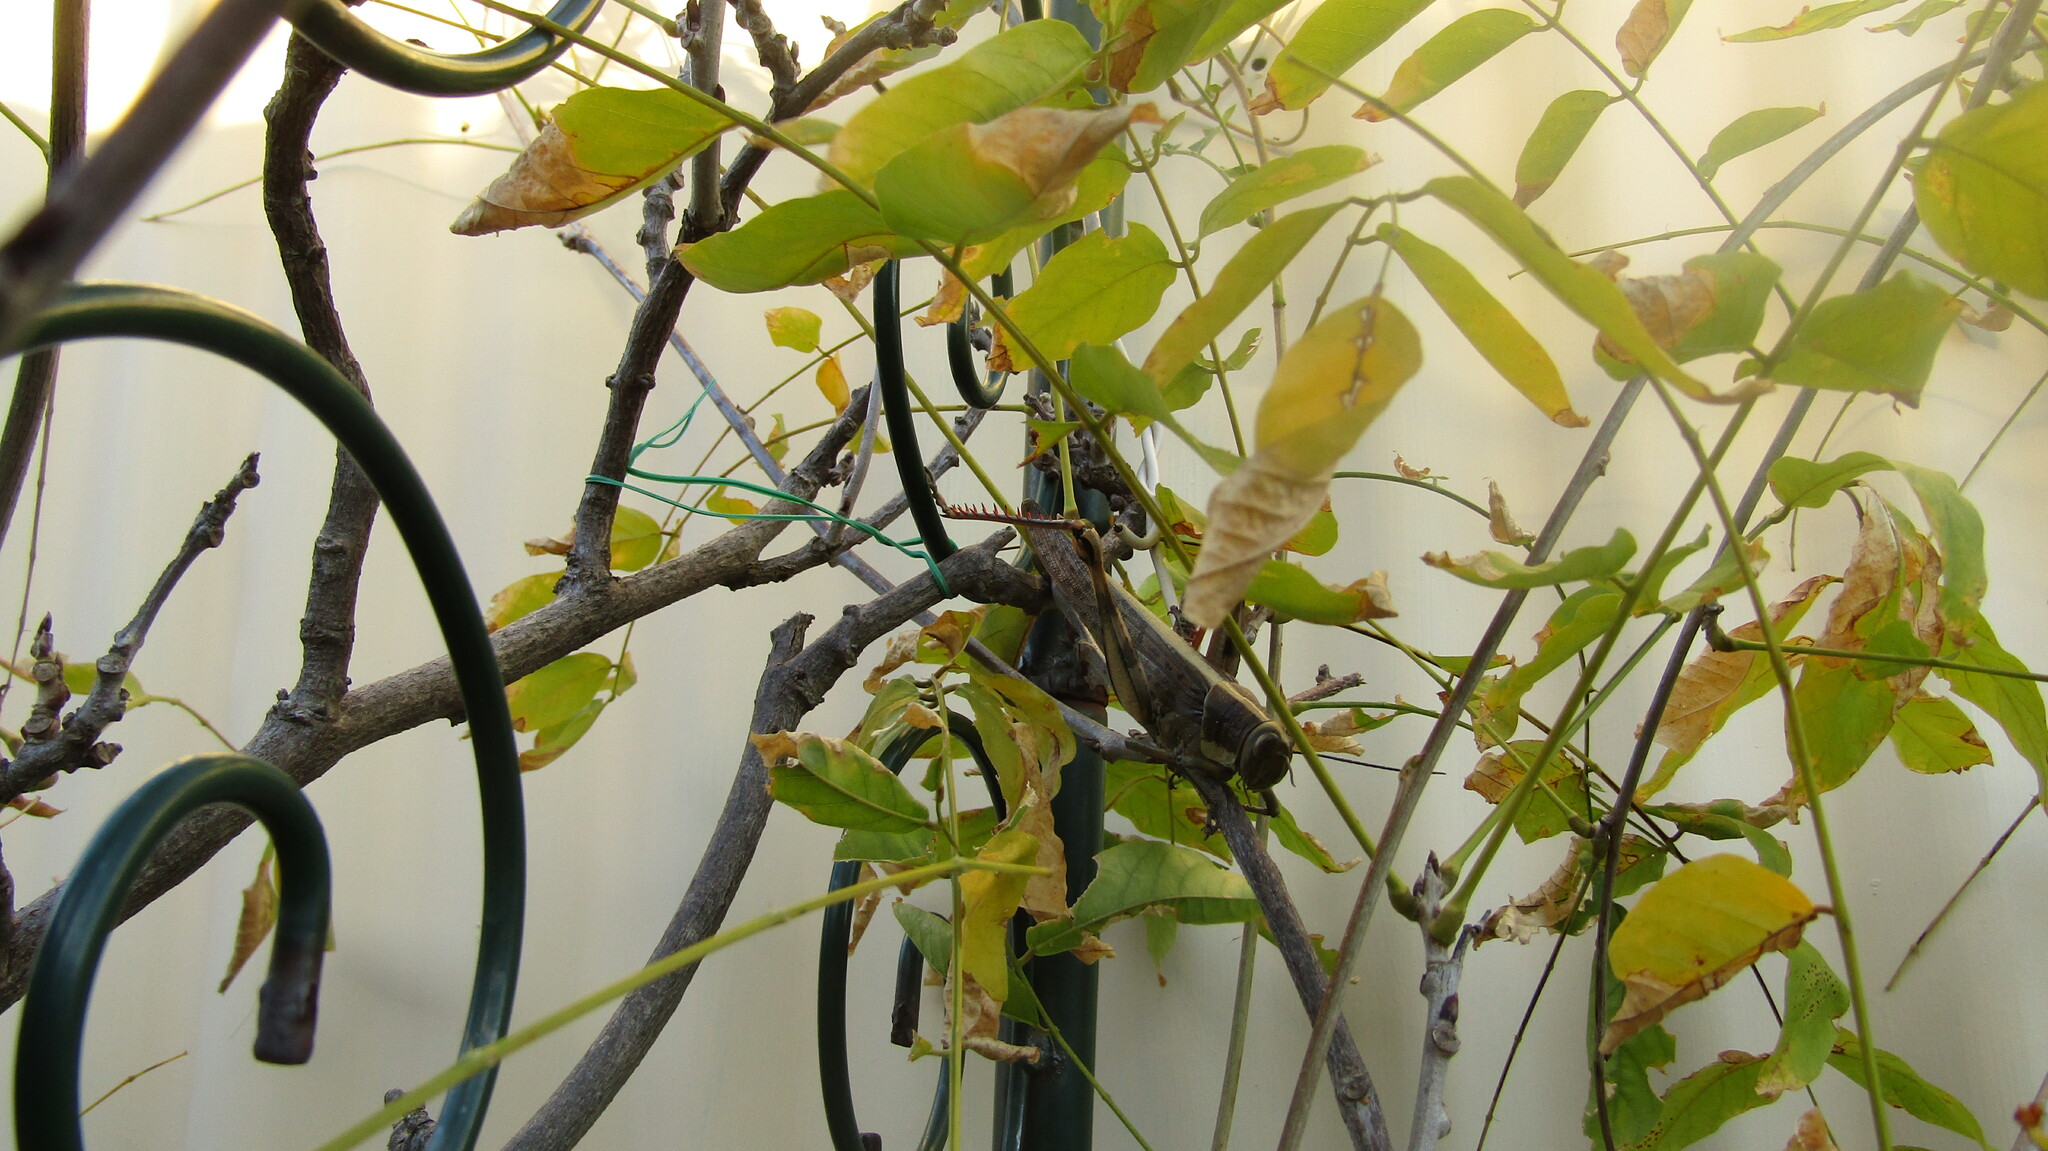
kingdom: Animalia
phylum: Arthropoda
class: Insecta
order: Orthoptera
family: Acrididae
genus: Valanga
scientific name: Valanga irregularis
